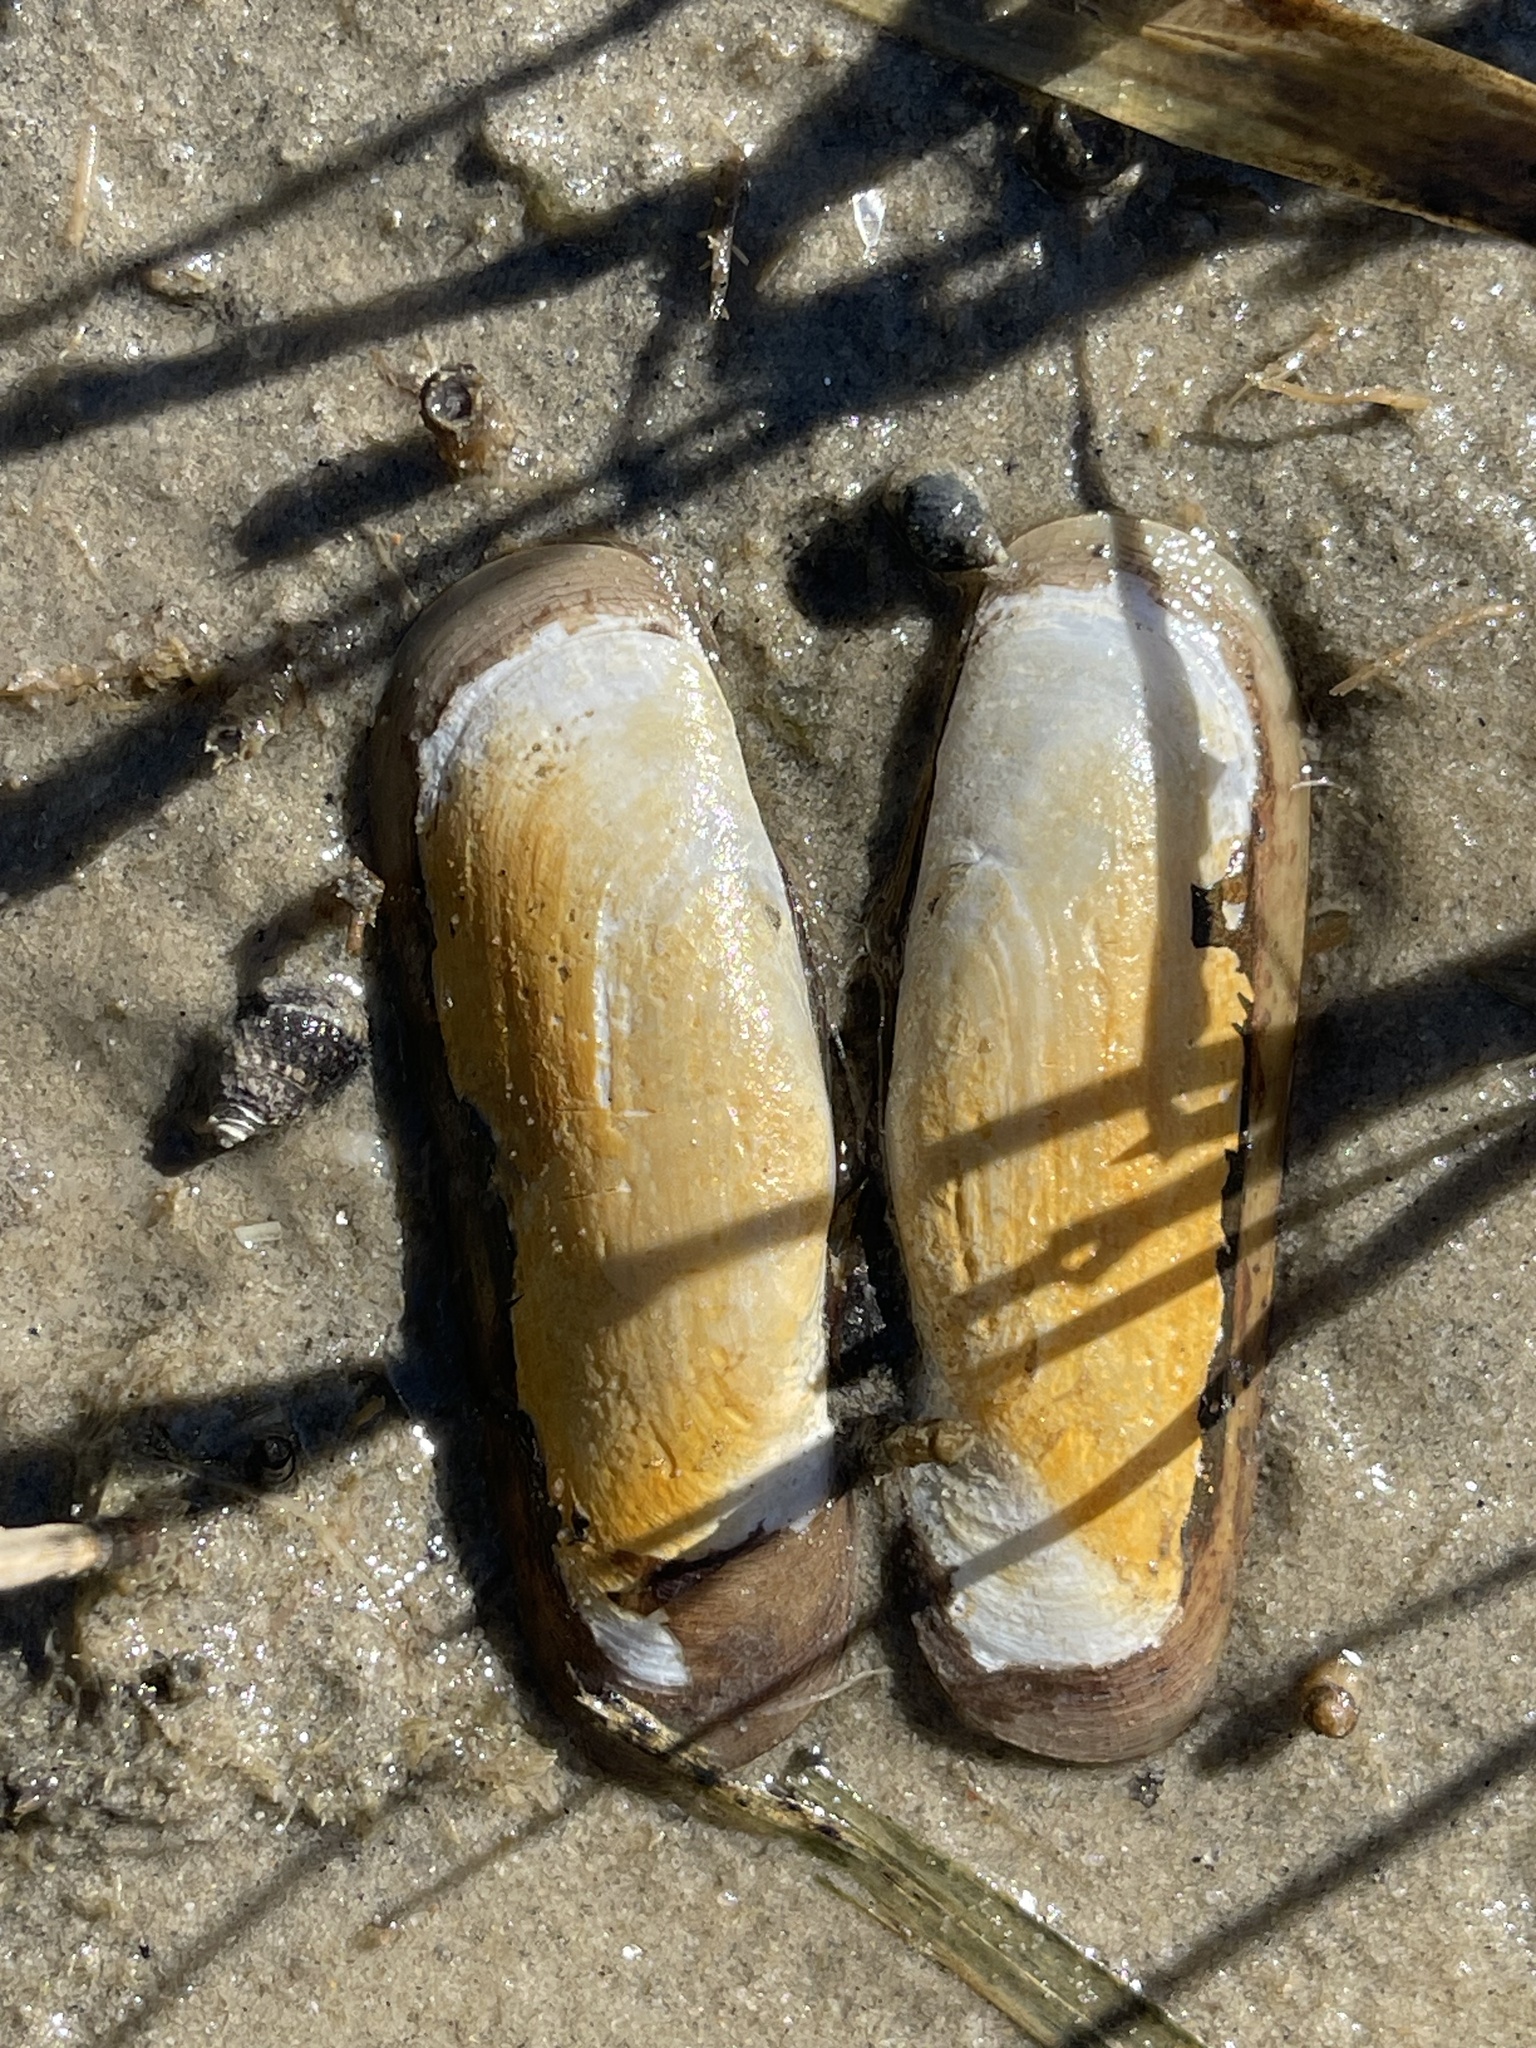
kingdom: Animalia
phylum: Mollusca
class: Bivalvia
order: Cardiida
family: Solecurtidae
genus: Tagelus
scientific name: Tagelus plebeius
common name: Stout tagelus
